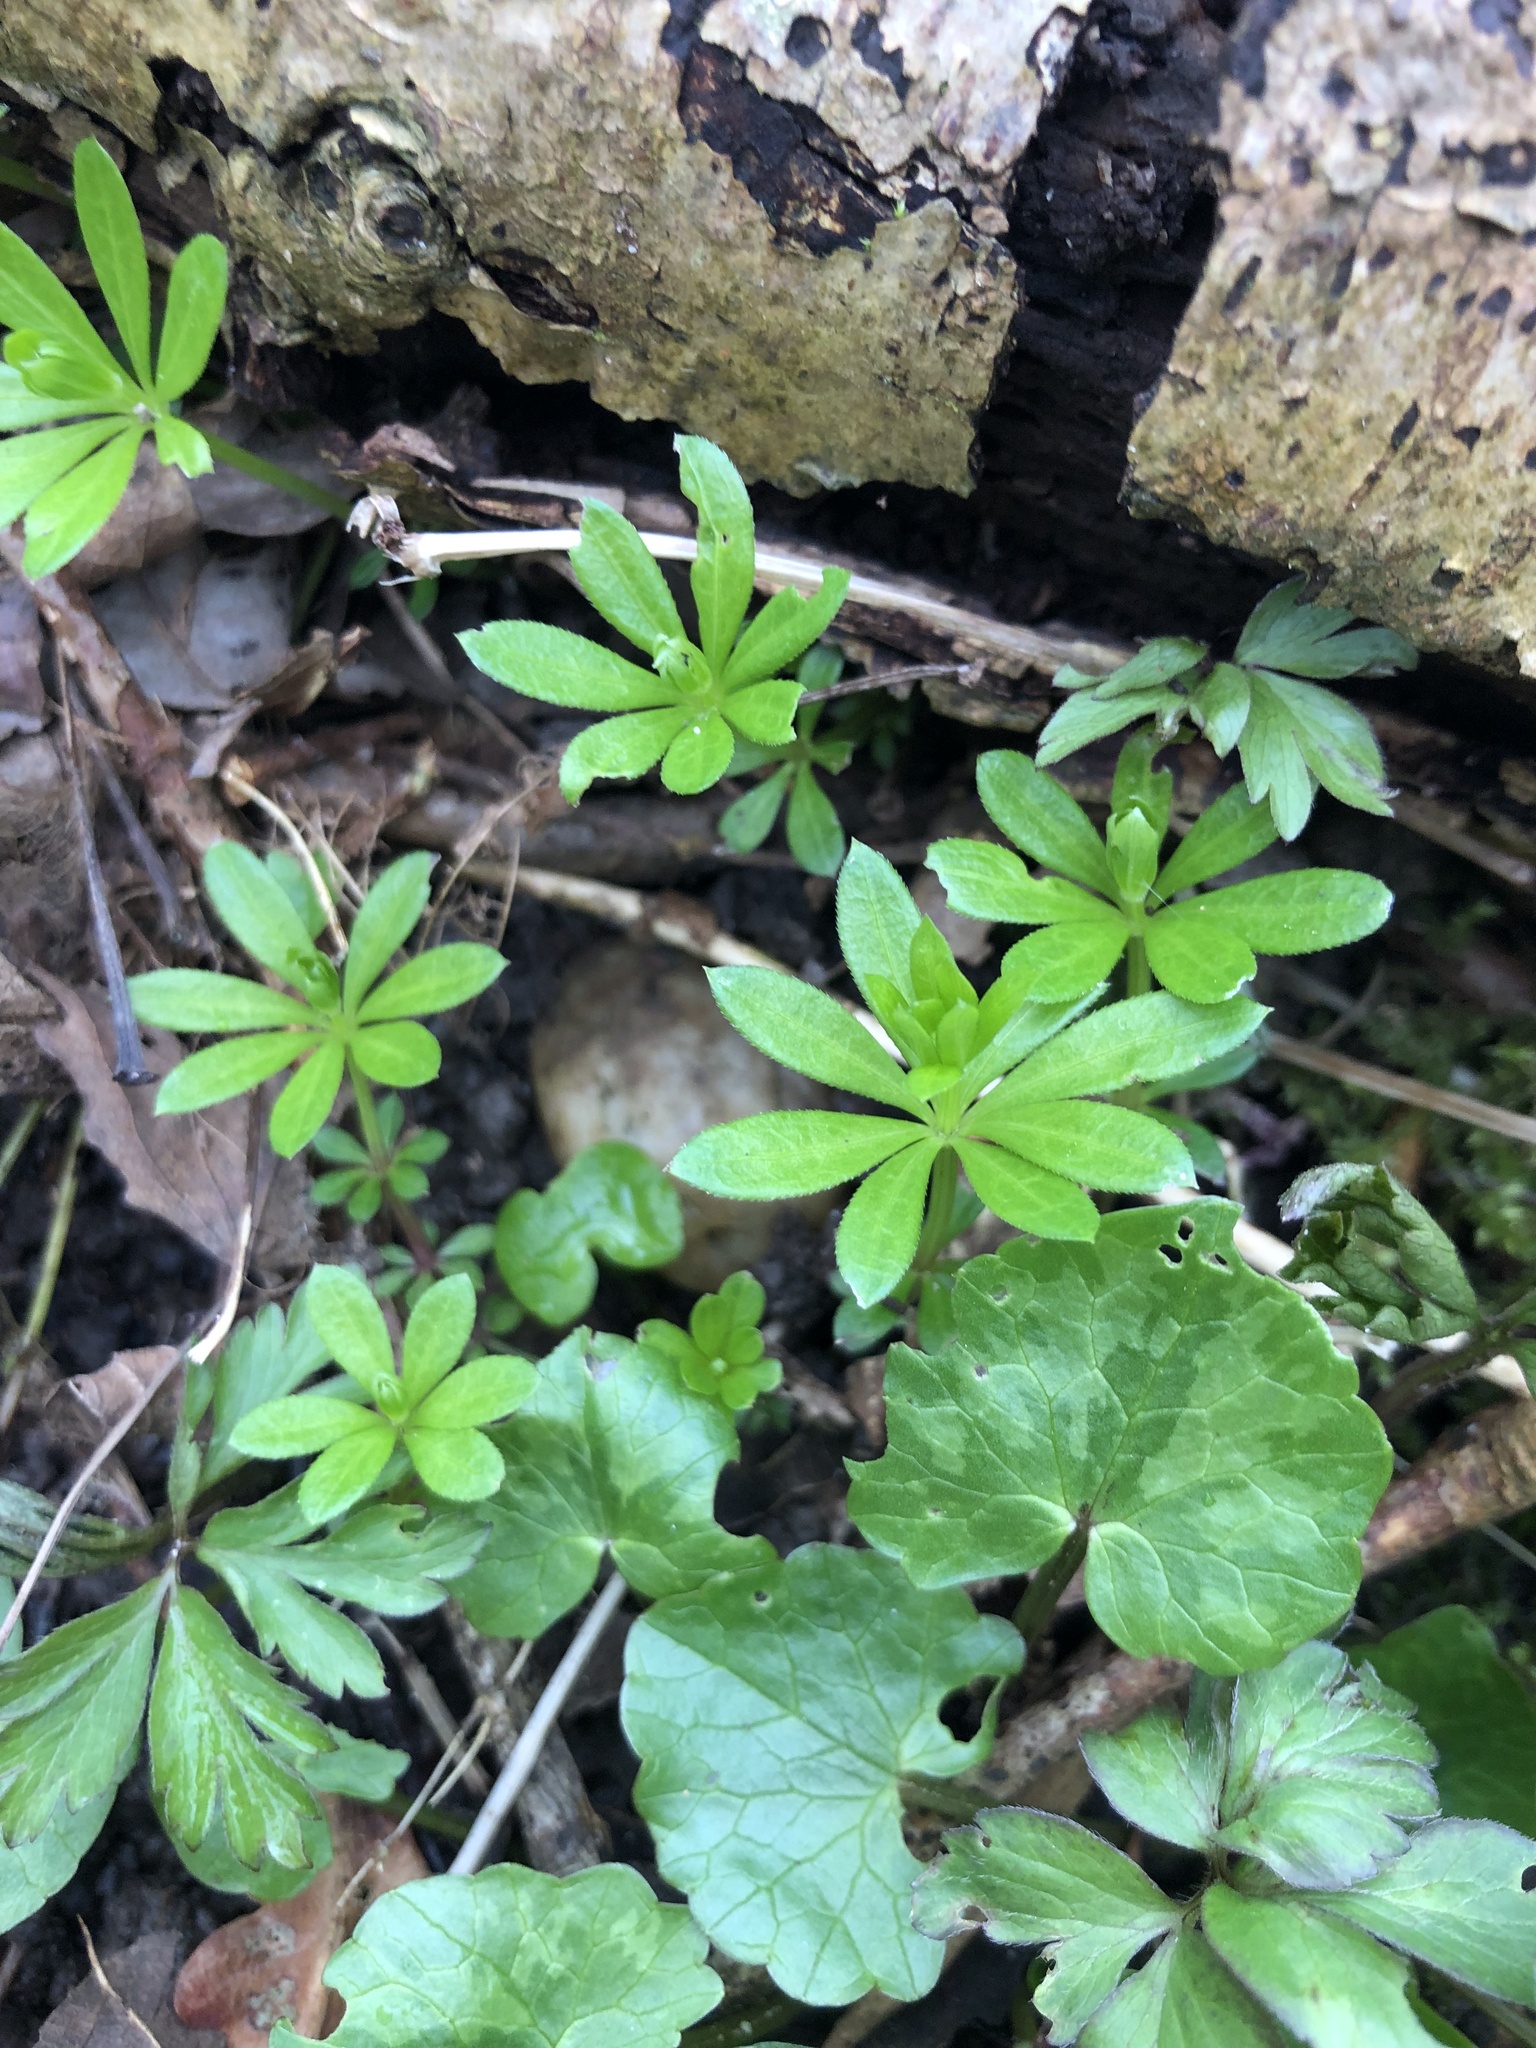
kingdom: Plantae
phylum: Tracheophyta
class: Magnoliopsida
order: Gentianales
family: Rubiaceae
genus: Galium
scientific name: Galium odoratum
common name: Sweet woodruff
